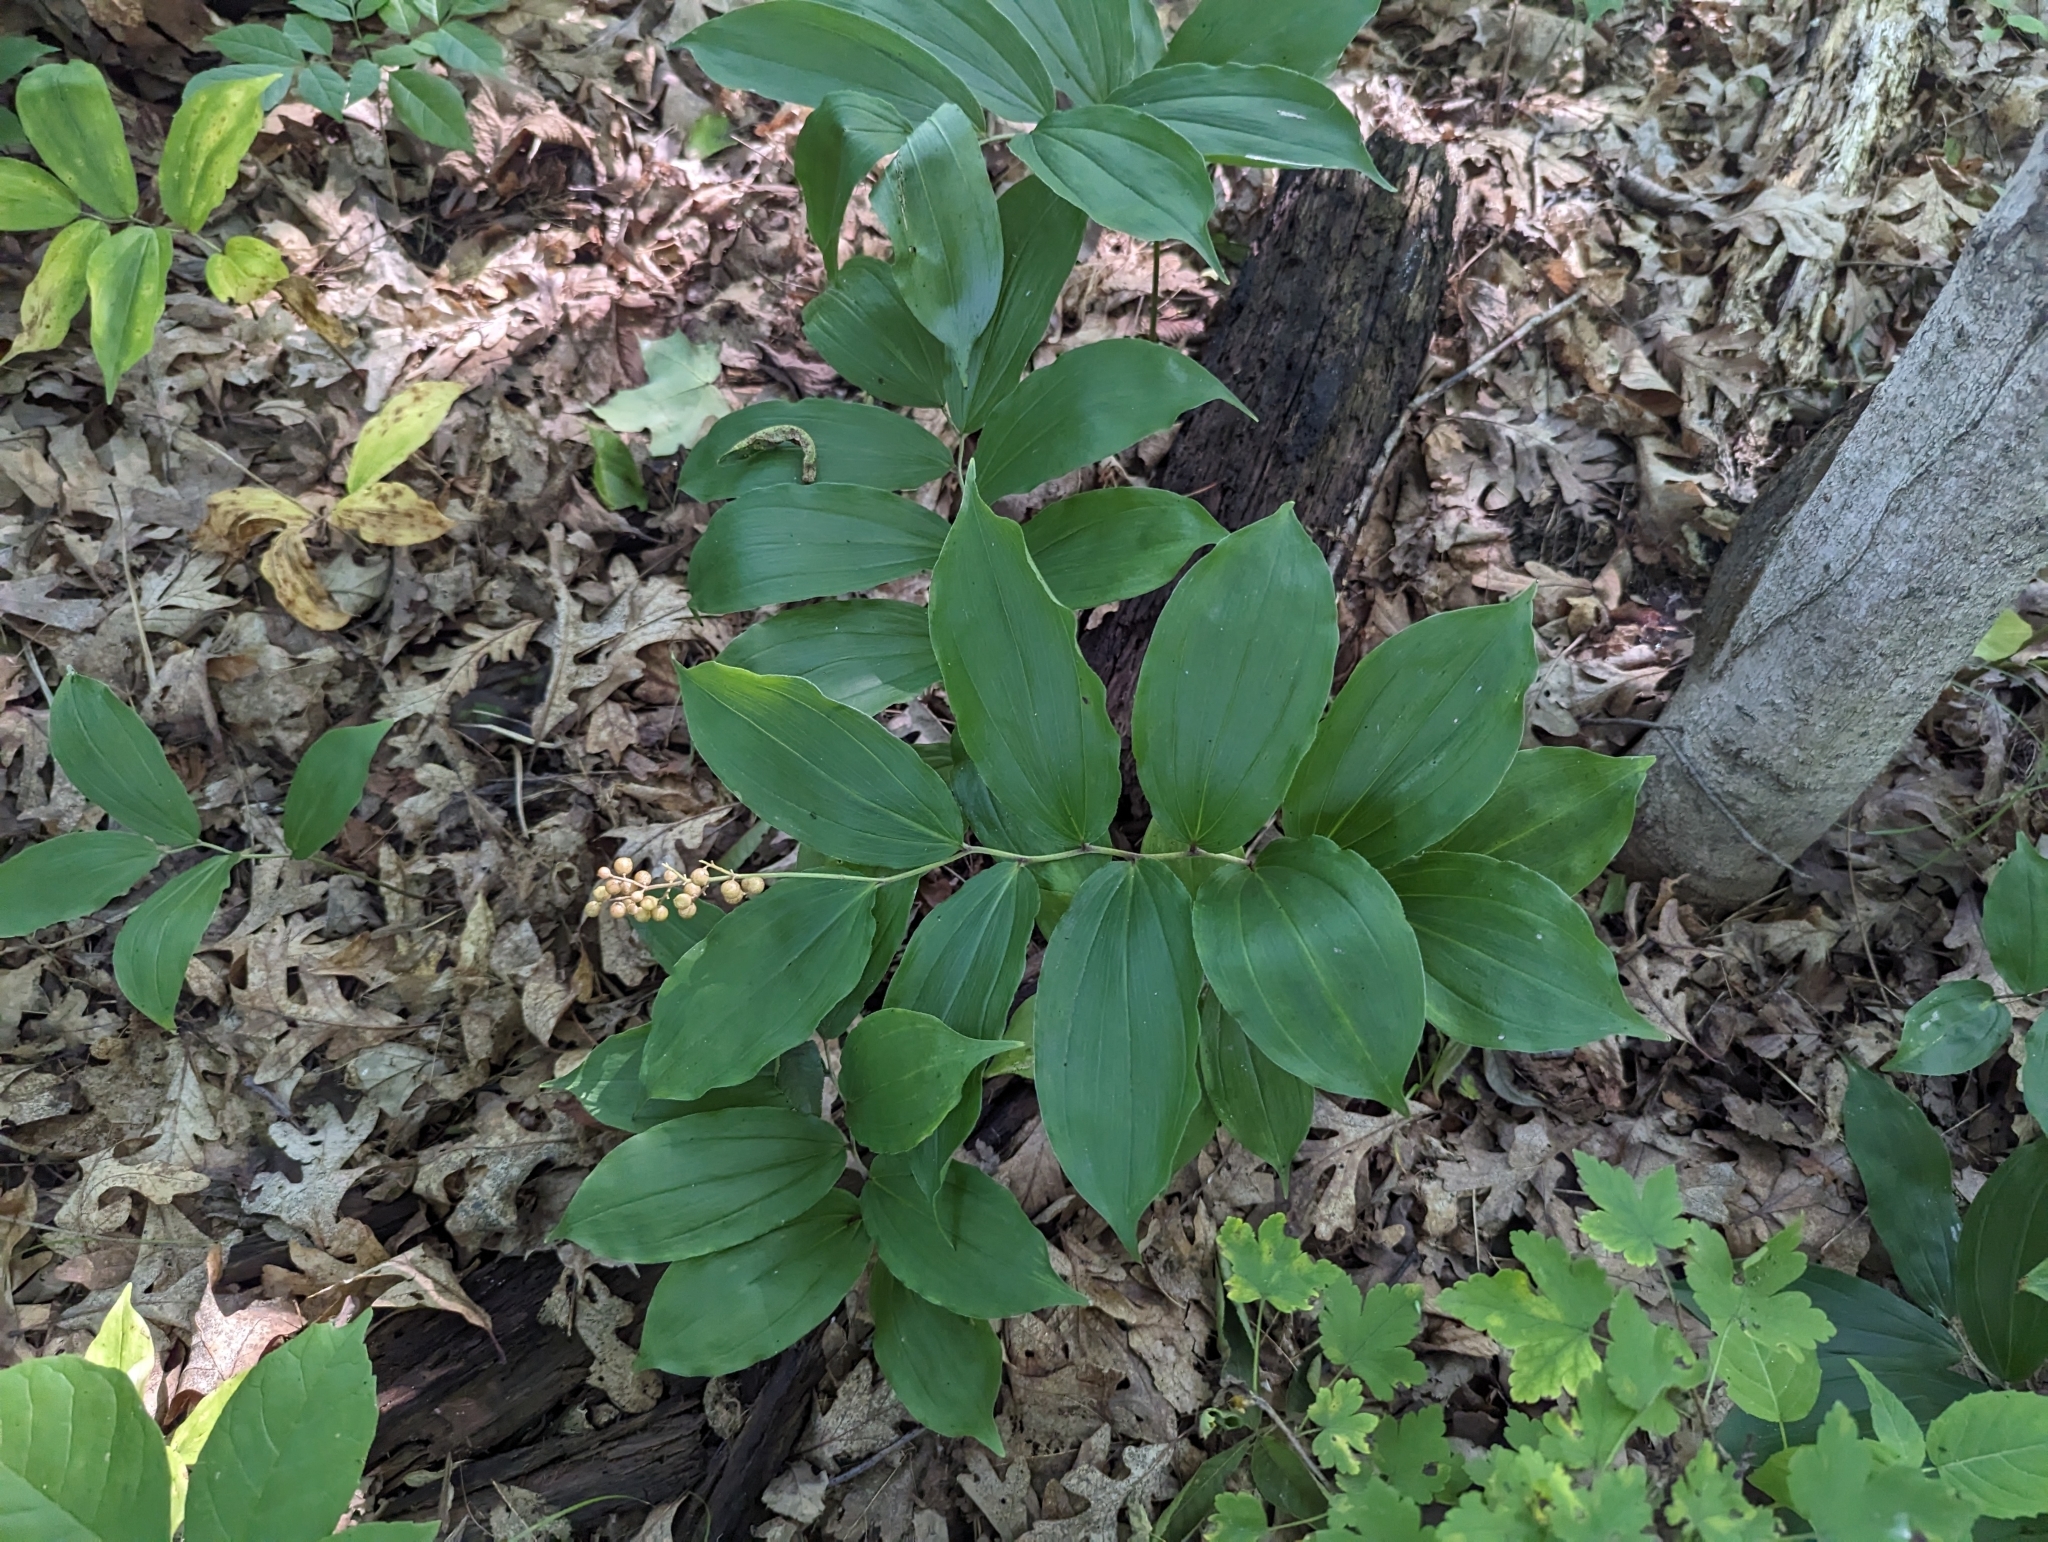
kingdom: Plantae
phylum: Tracheophyta
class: Liliopsida
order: Asparagales
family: Asparagaceae
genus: Maianthemum
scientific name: Maianthemum racemosum
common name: False spikenard
